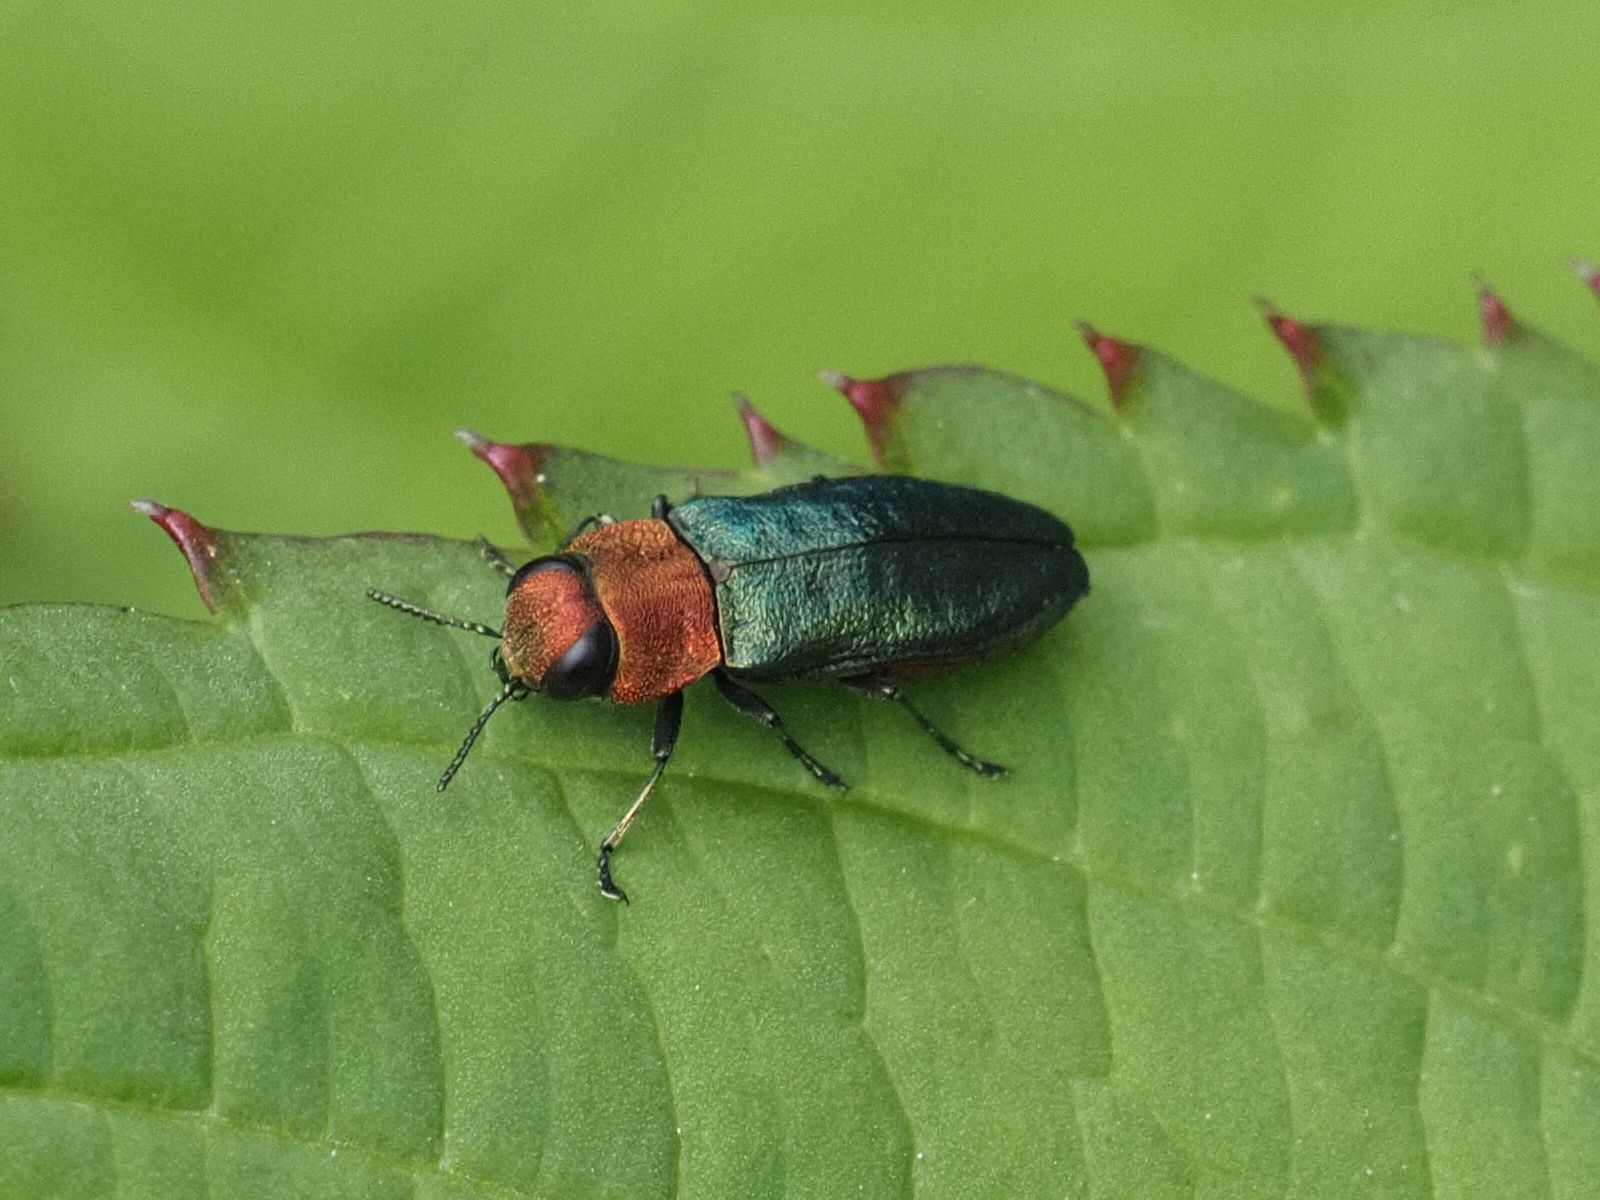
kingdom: Animalia
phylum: Arthropoda
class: Insecta
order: Coleoptera
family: Buprestidae
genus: Anthaxia
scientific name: Anthaxia nitidula
